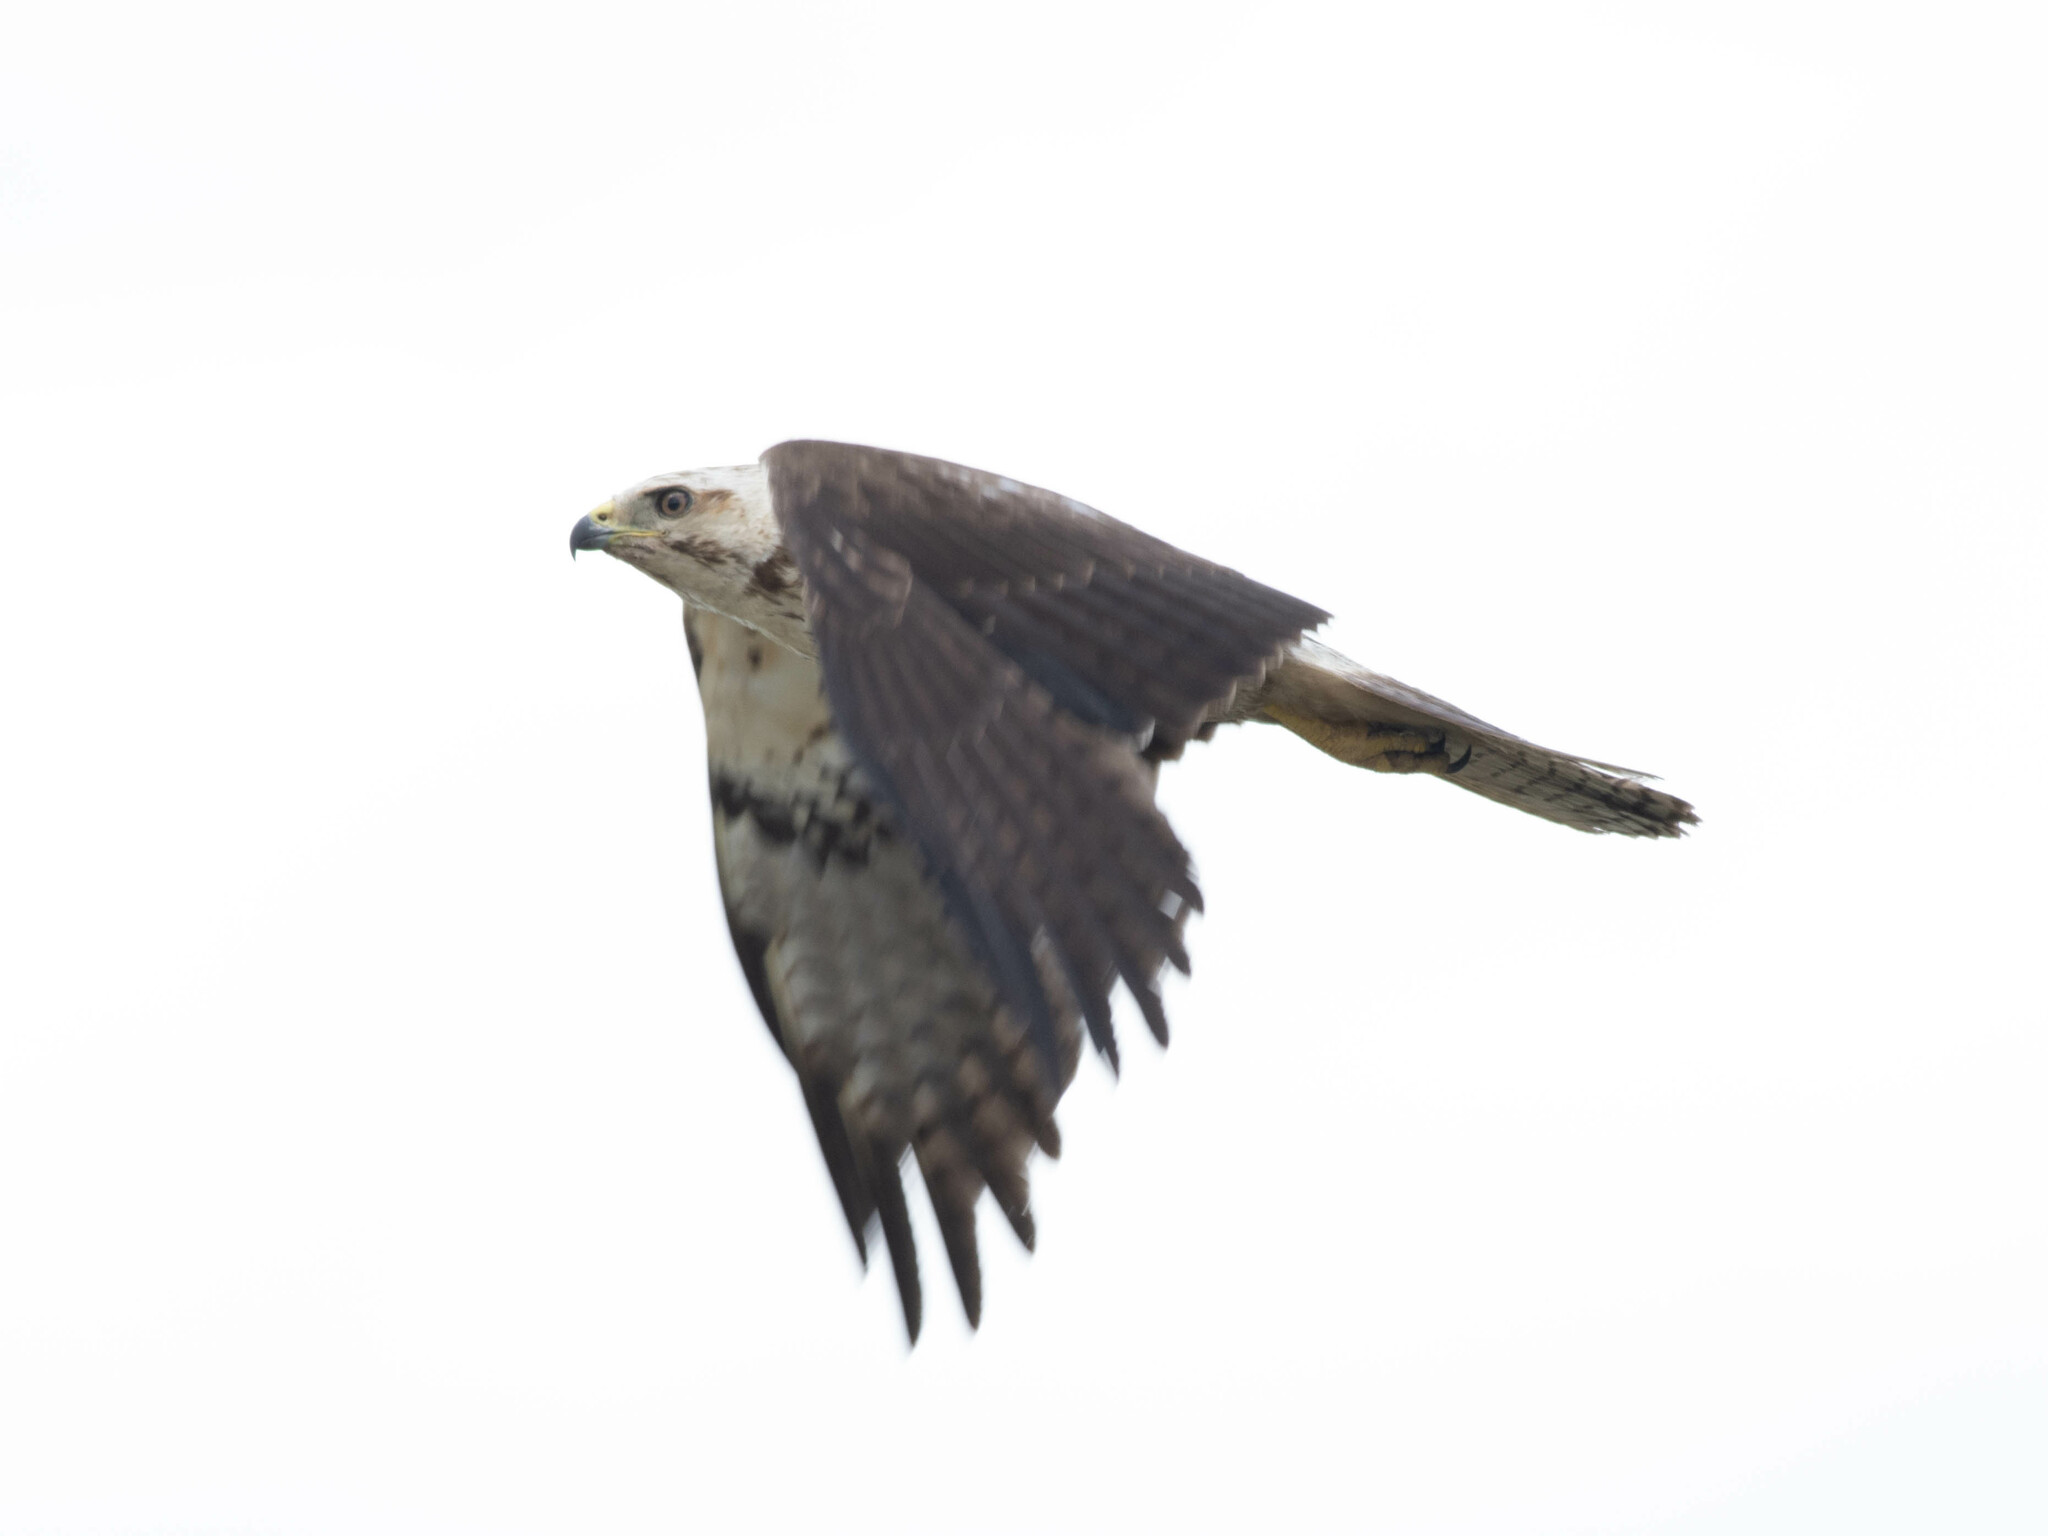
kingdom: Animalia
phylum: Chordata
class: Aves
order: Accipitriformes
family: Accipitridae
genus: Buteo
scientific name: Buteo swainsoni
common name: Swainson's hawk
